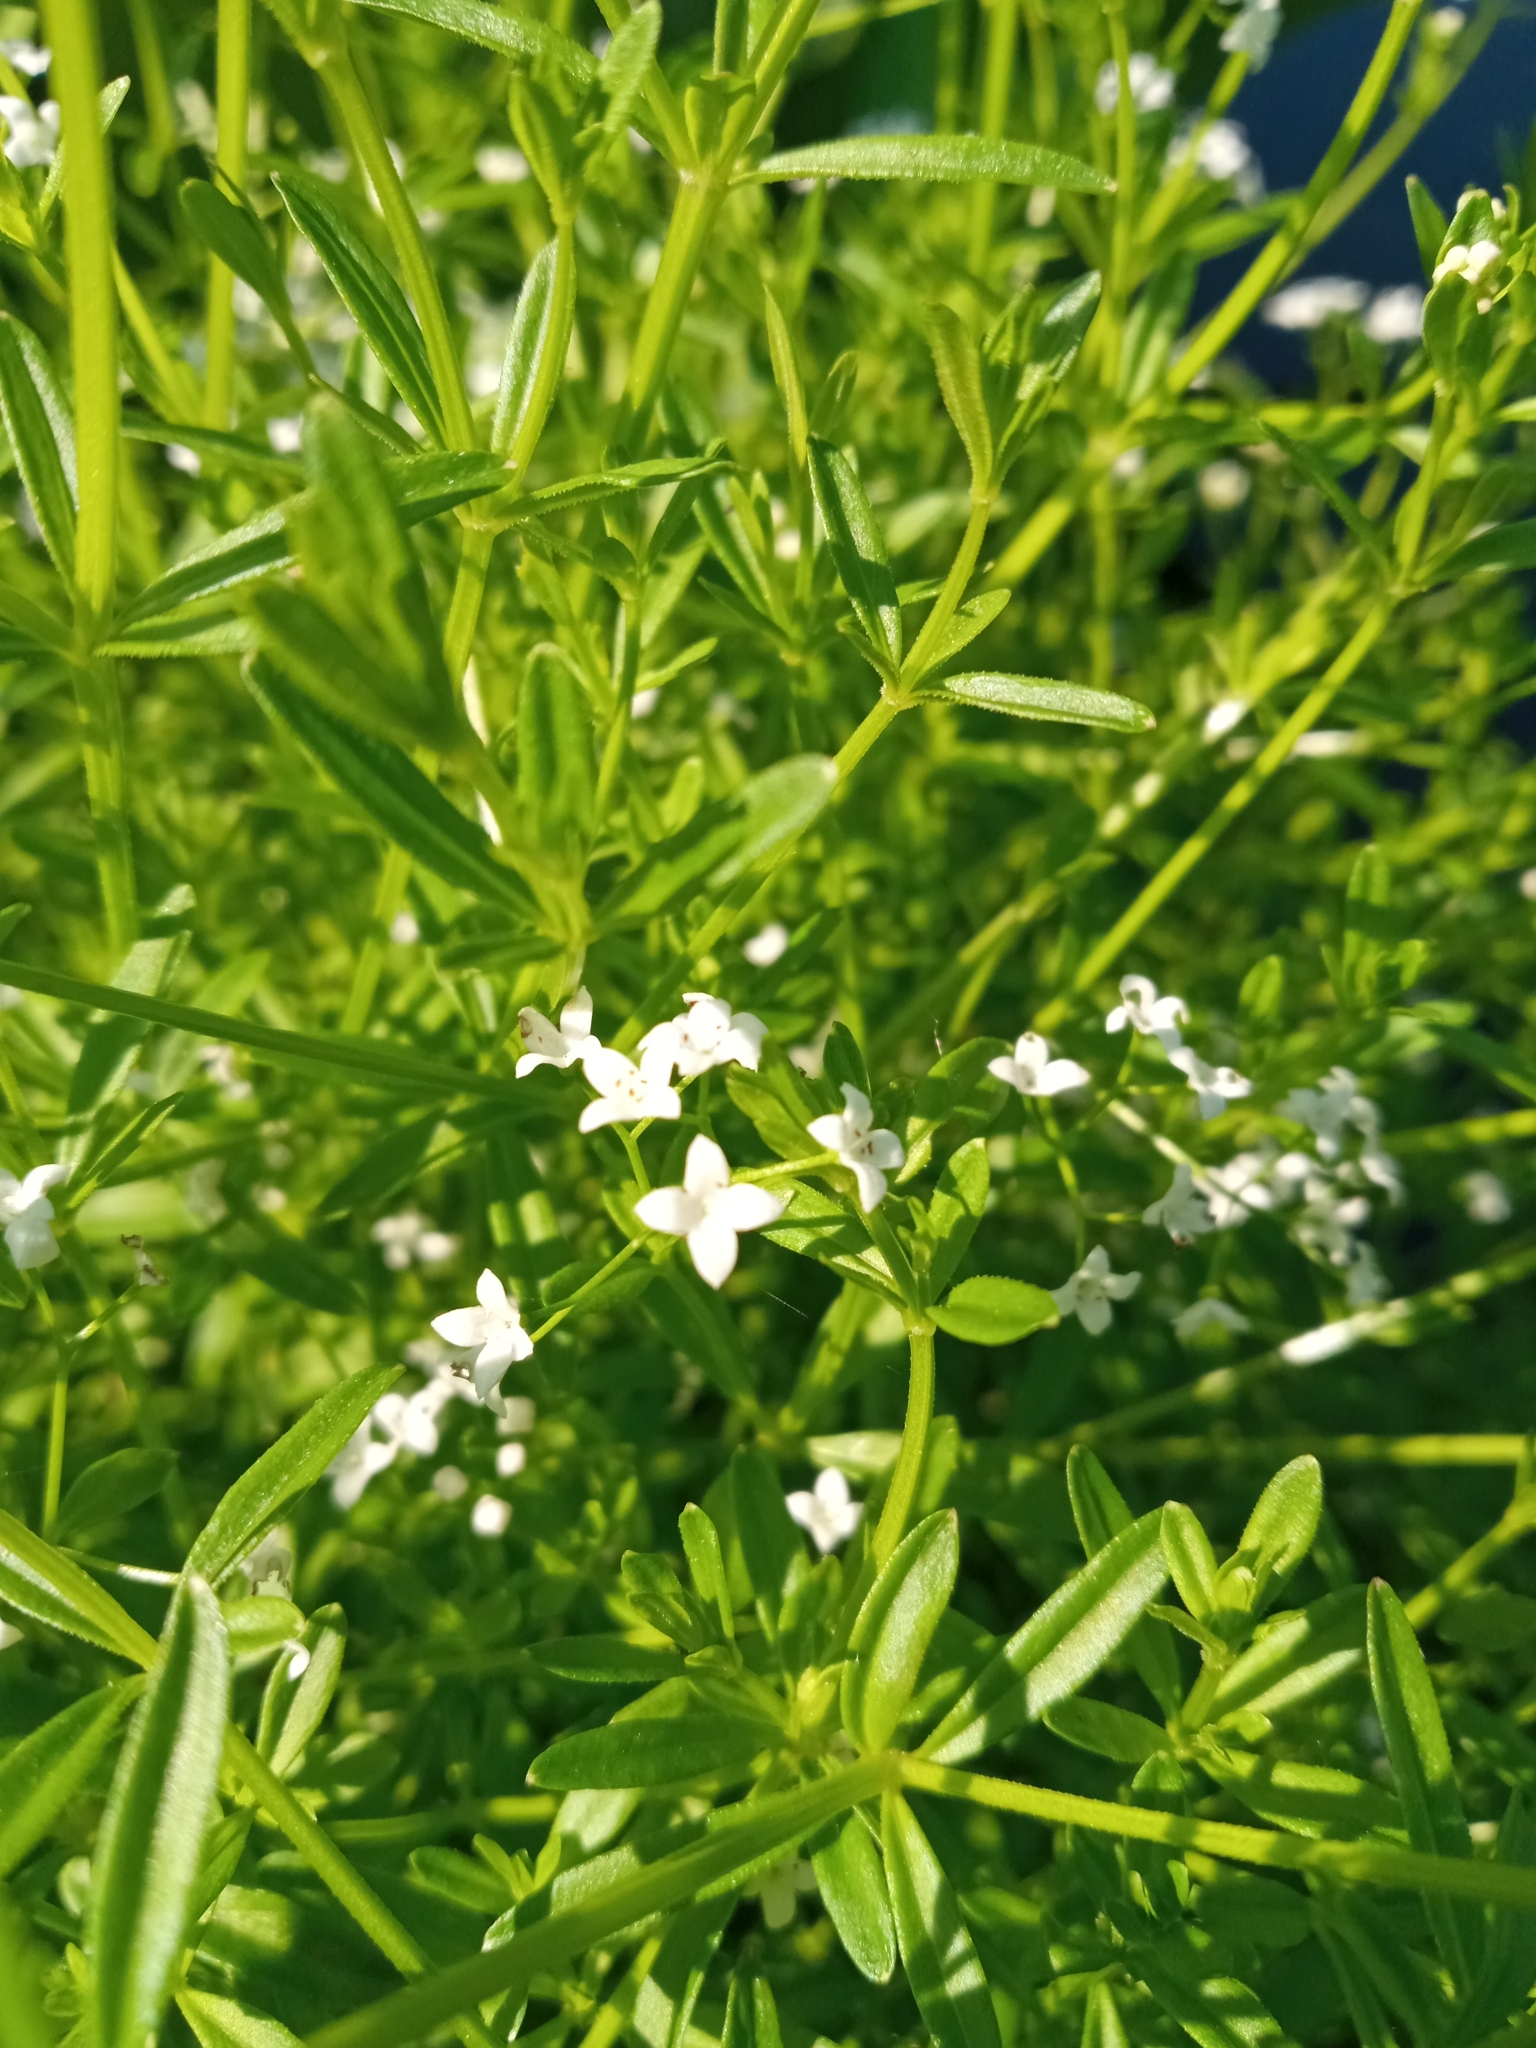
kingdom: Plantae
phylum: Tracheophyta
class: Magnoliopsida
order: Gentianales
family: Rubiaceae
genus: Galium
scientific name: Galium palustre
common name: Common marsh-bedstraw
